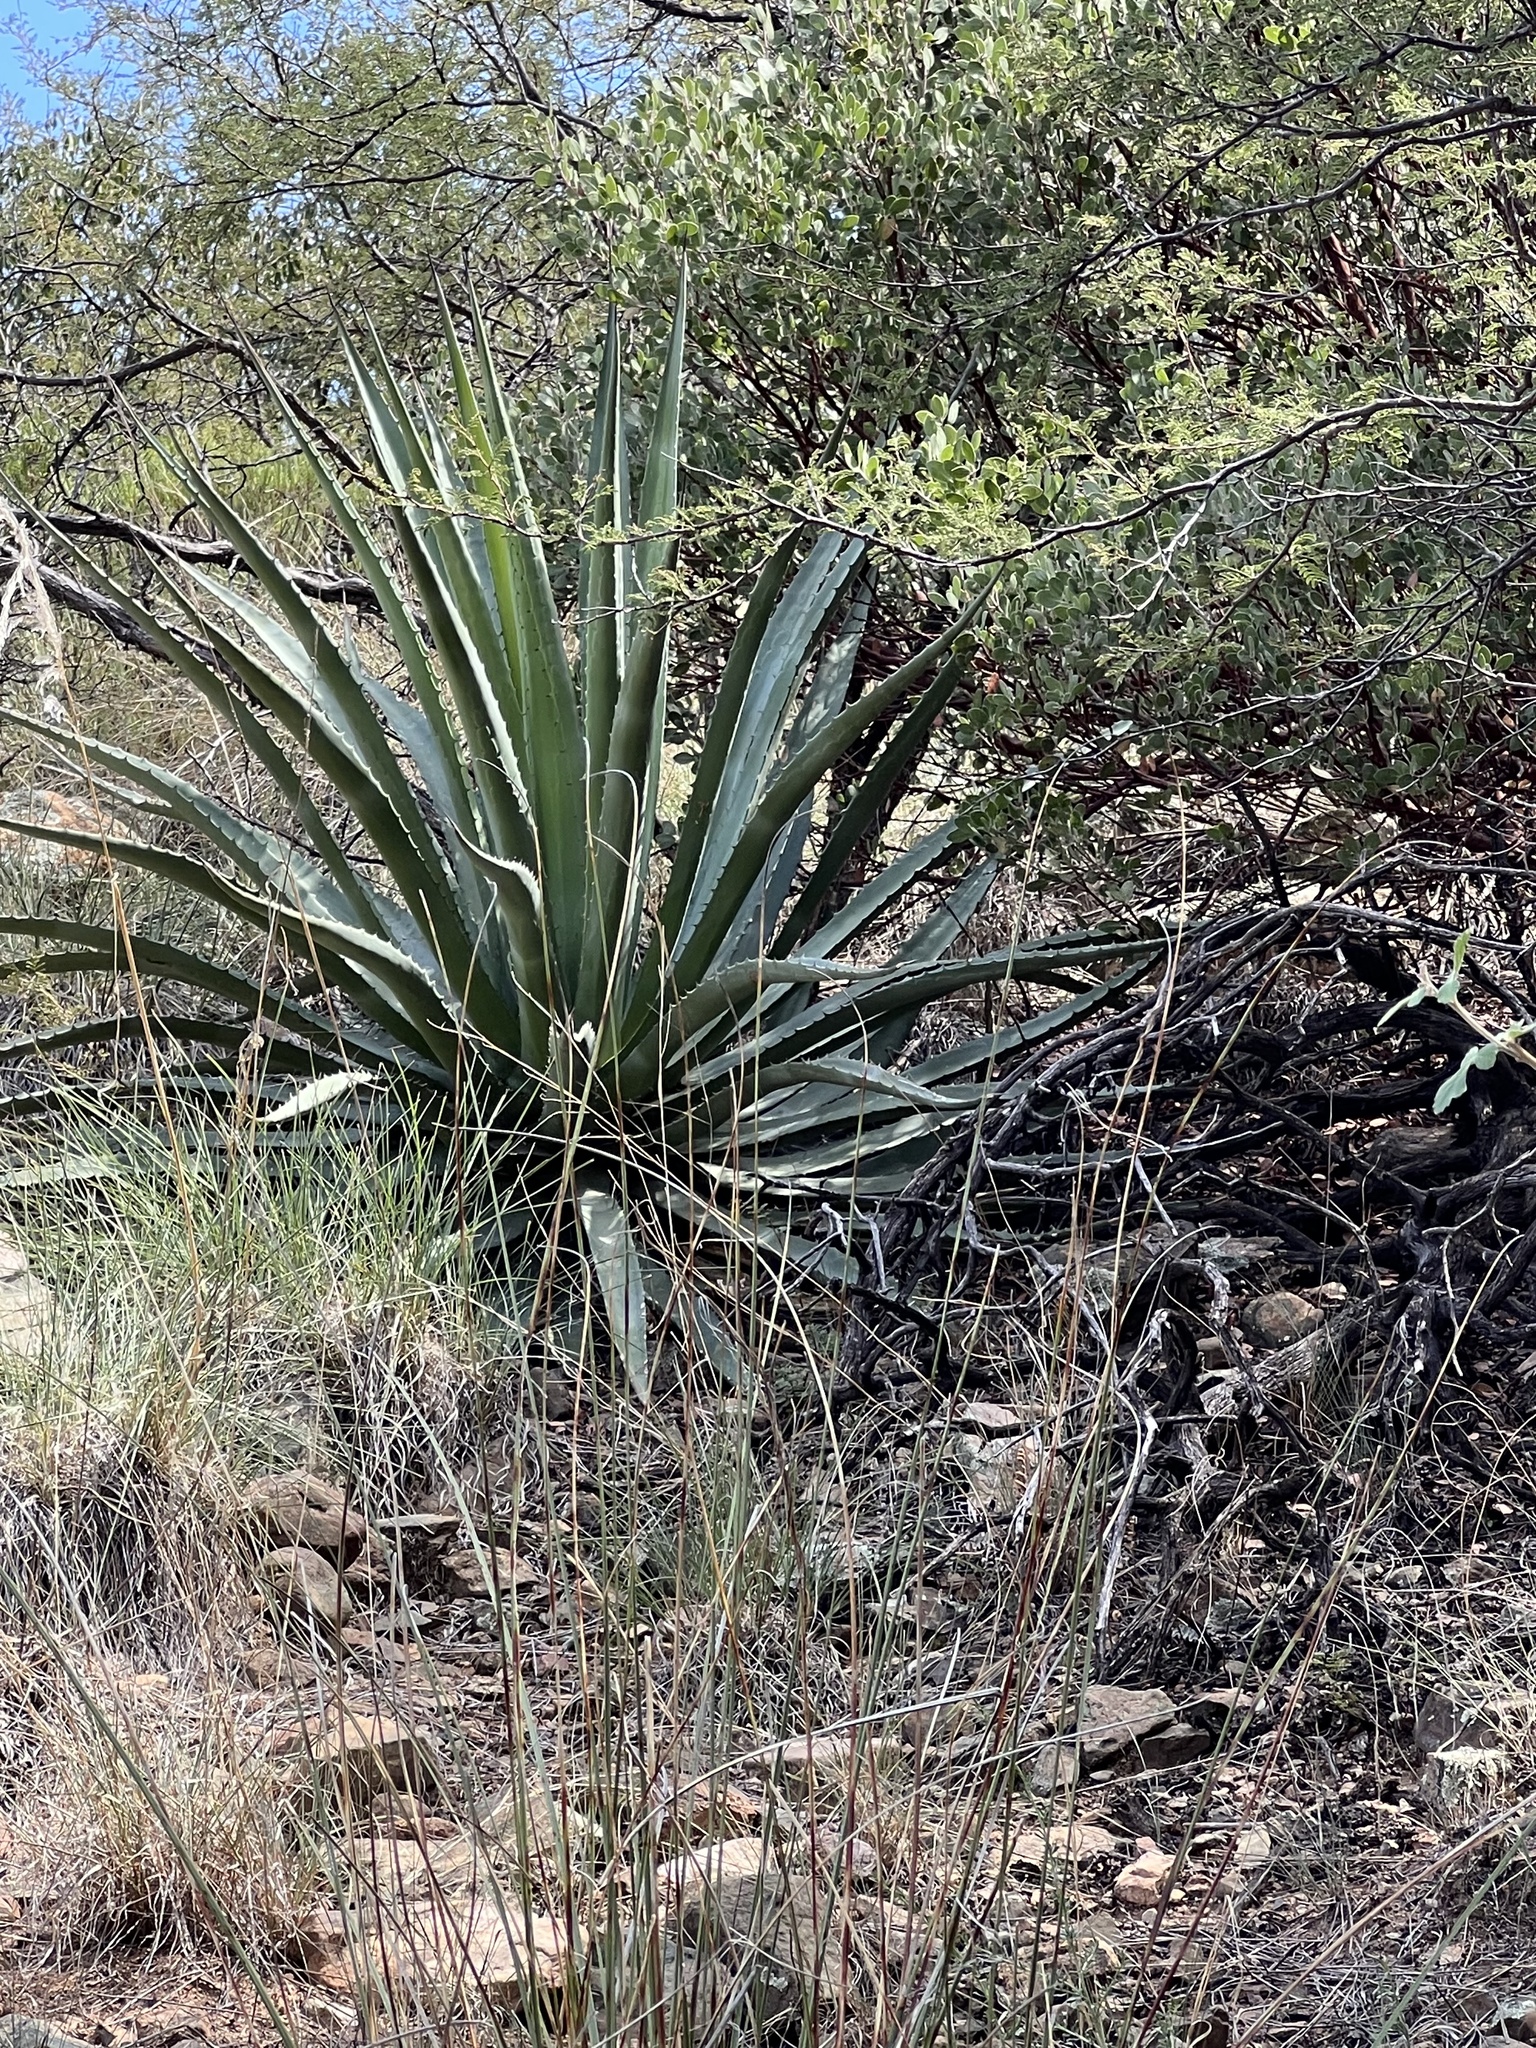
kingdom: Plantae
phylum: Tracheophyta
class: Liliopsida
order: Asparagales
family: Asparagaceae
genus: Agave
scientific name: Agave palmeri
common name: Palmer agave
